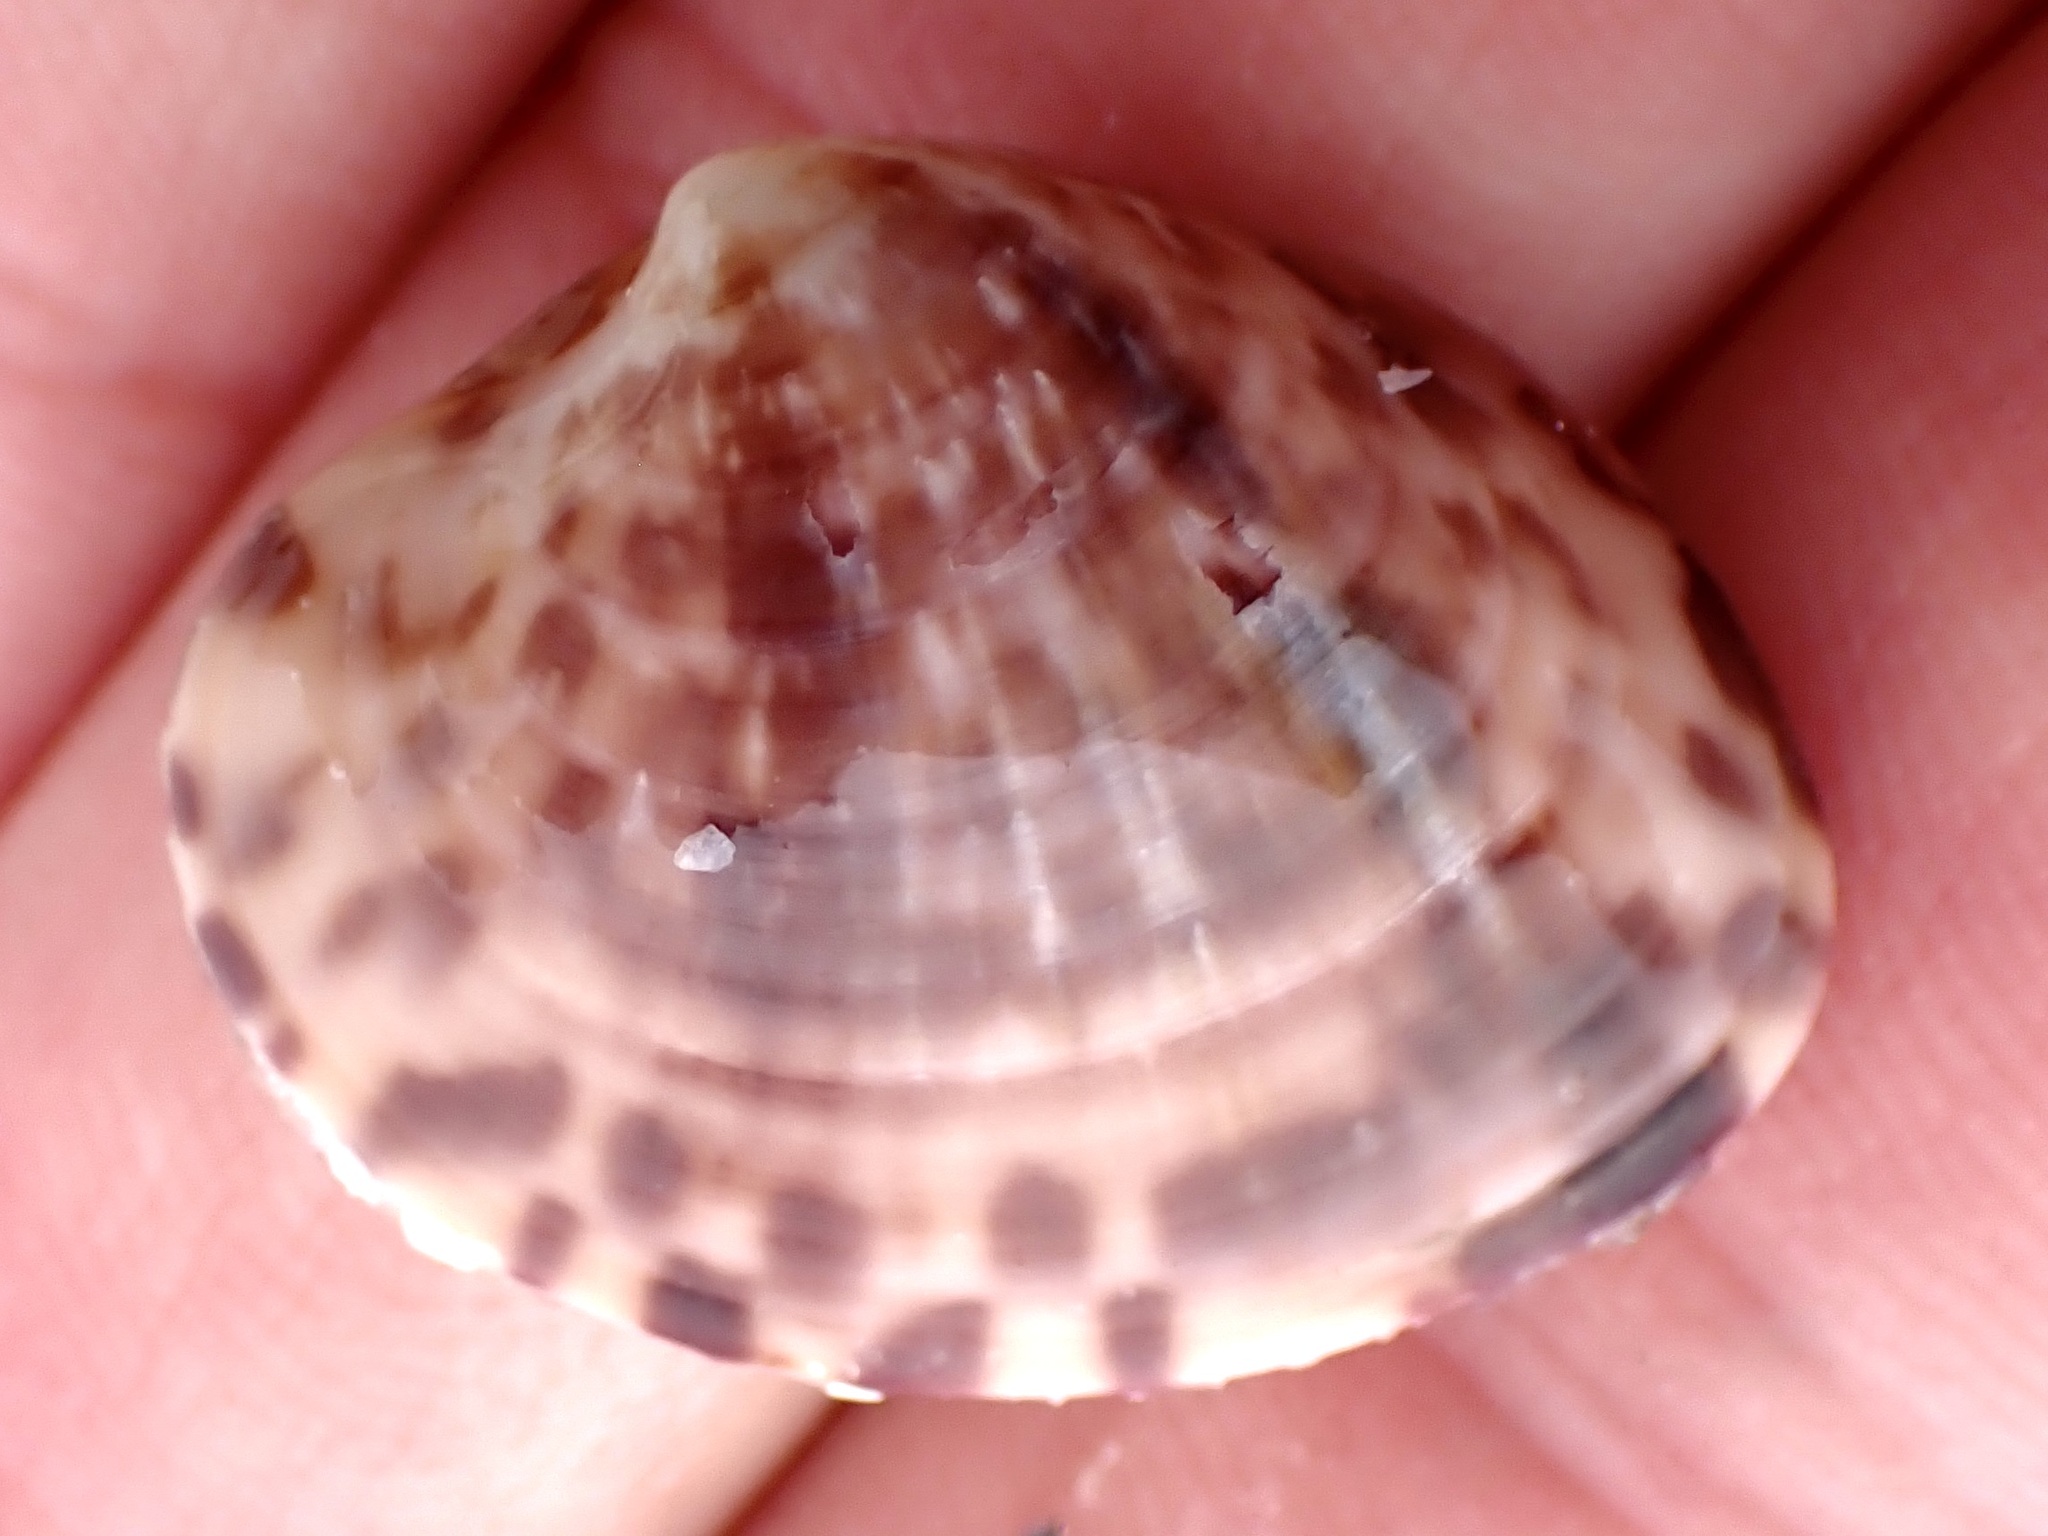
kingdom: Animalia
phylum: Mollusca
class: Bivalvia
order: Venerida
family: Veneridae
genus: Megapitaria
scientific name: Megapitaria maculata
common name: Calico clam
